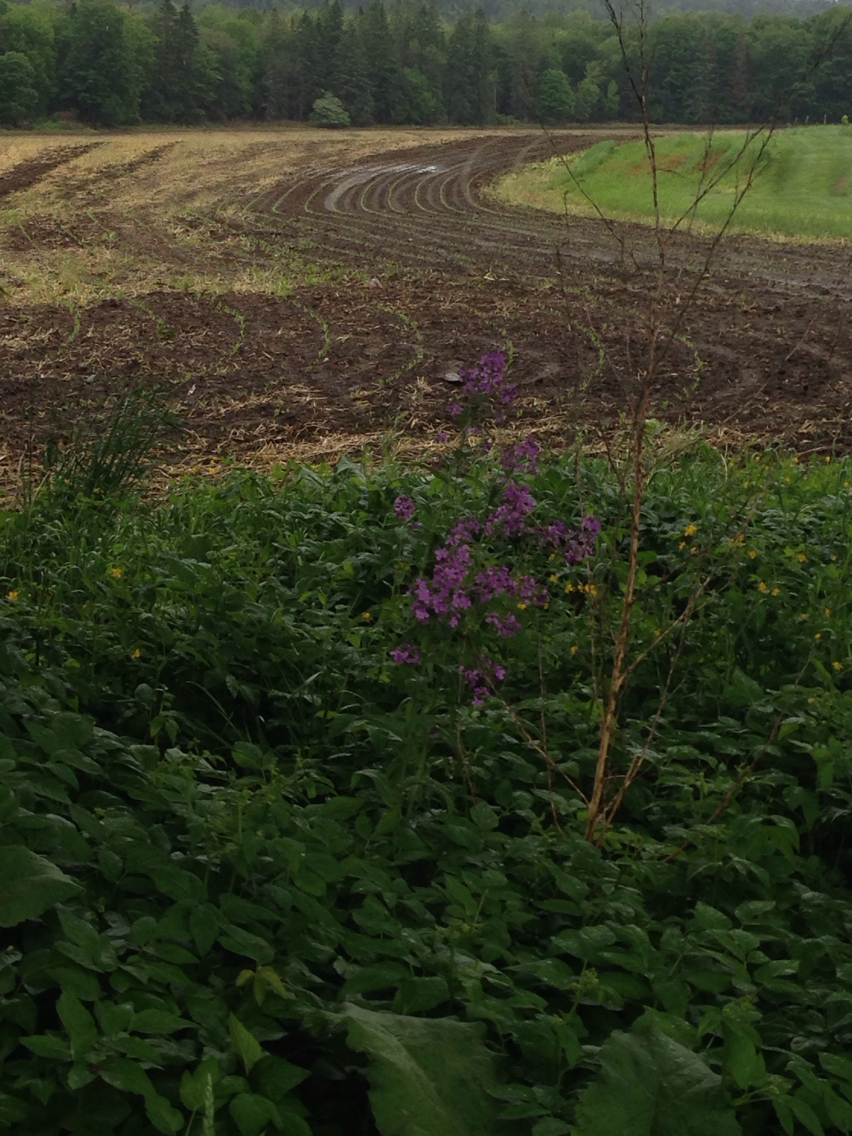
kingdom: Plantae
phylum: Tracheophyta
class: Magnoliopsida
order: Brassicales
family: Brassicaceae
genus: Hesperis
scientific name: Hesperis matronalis
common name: Dame's-violet
